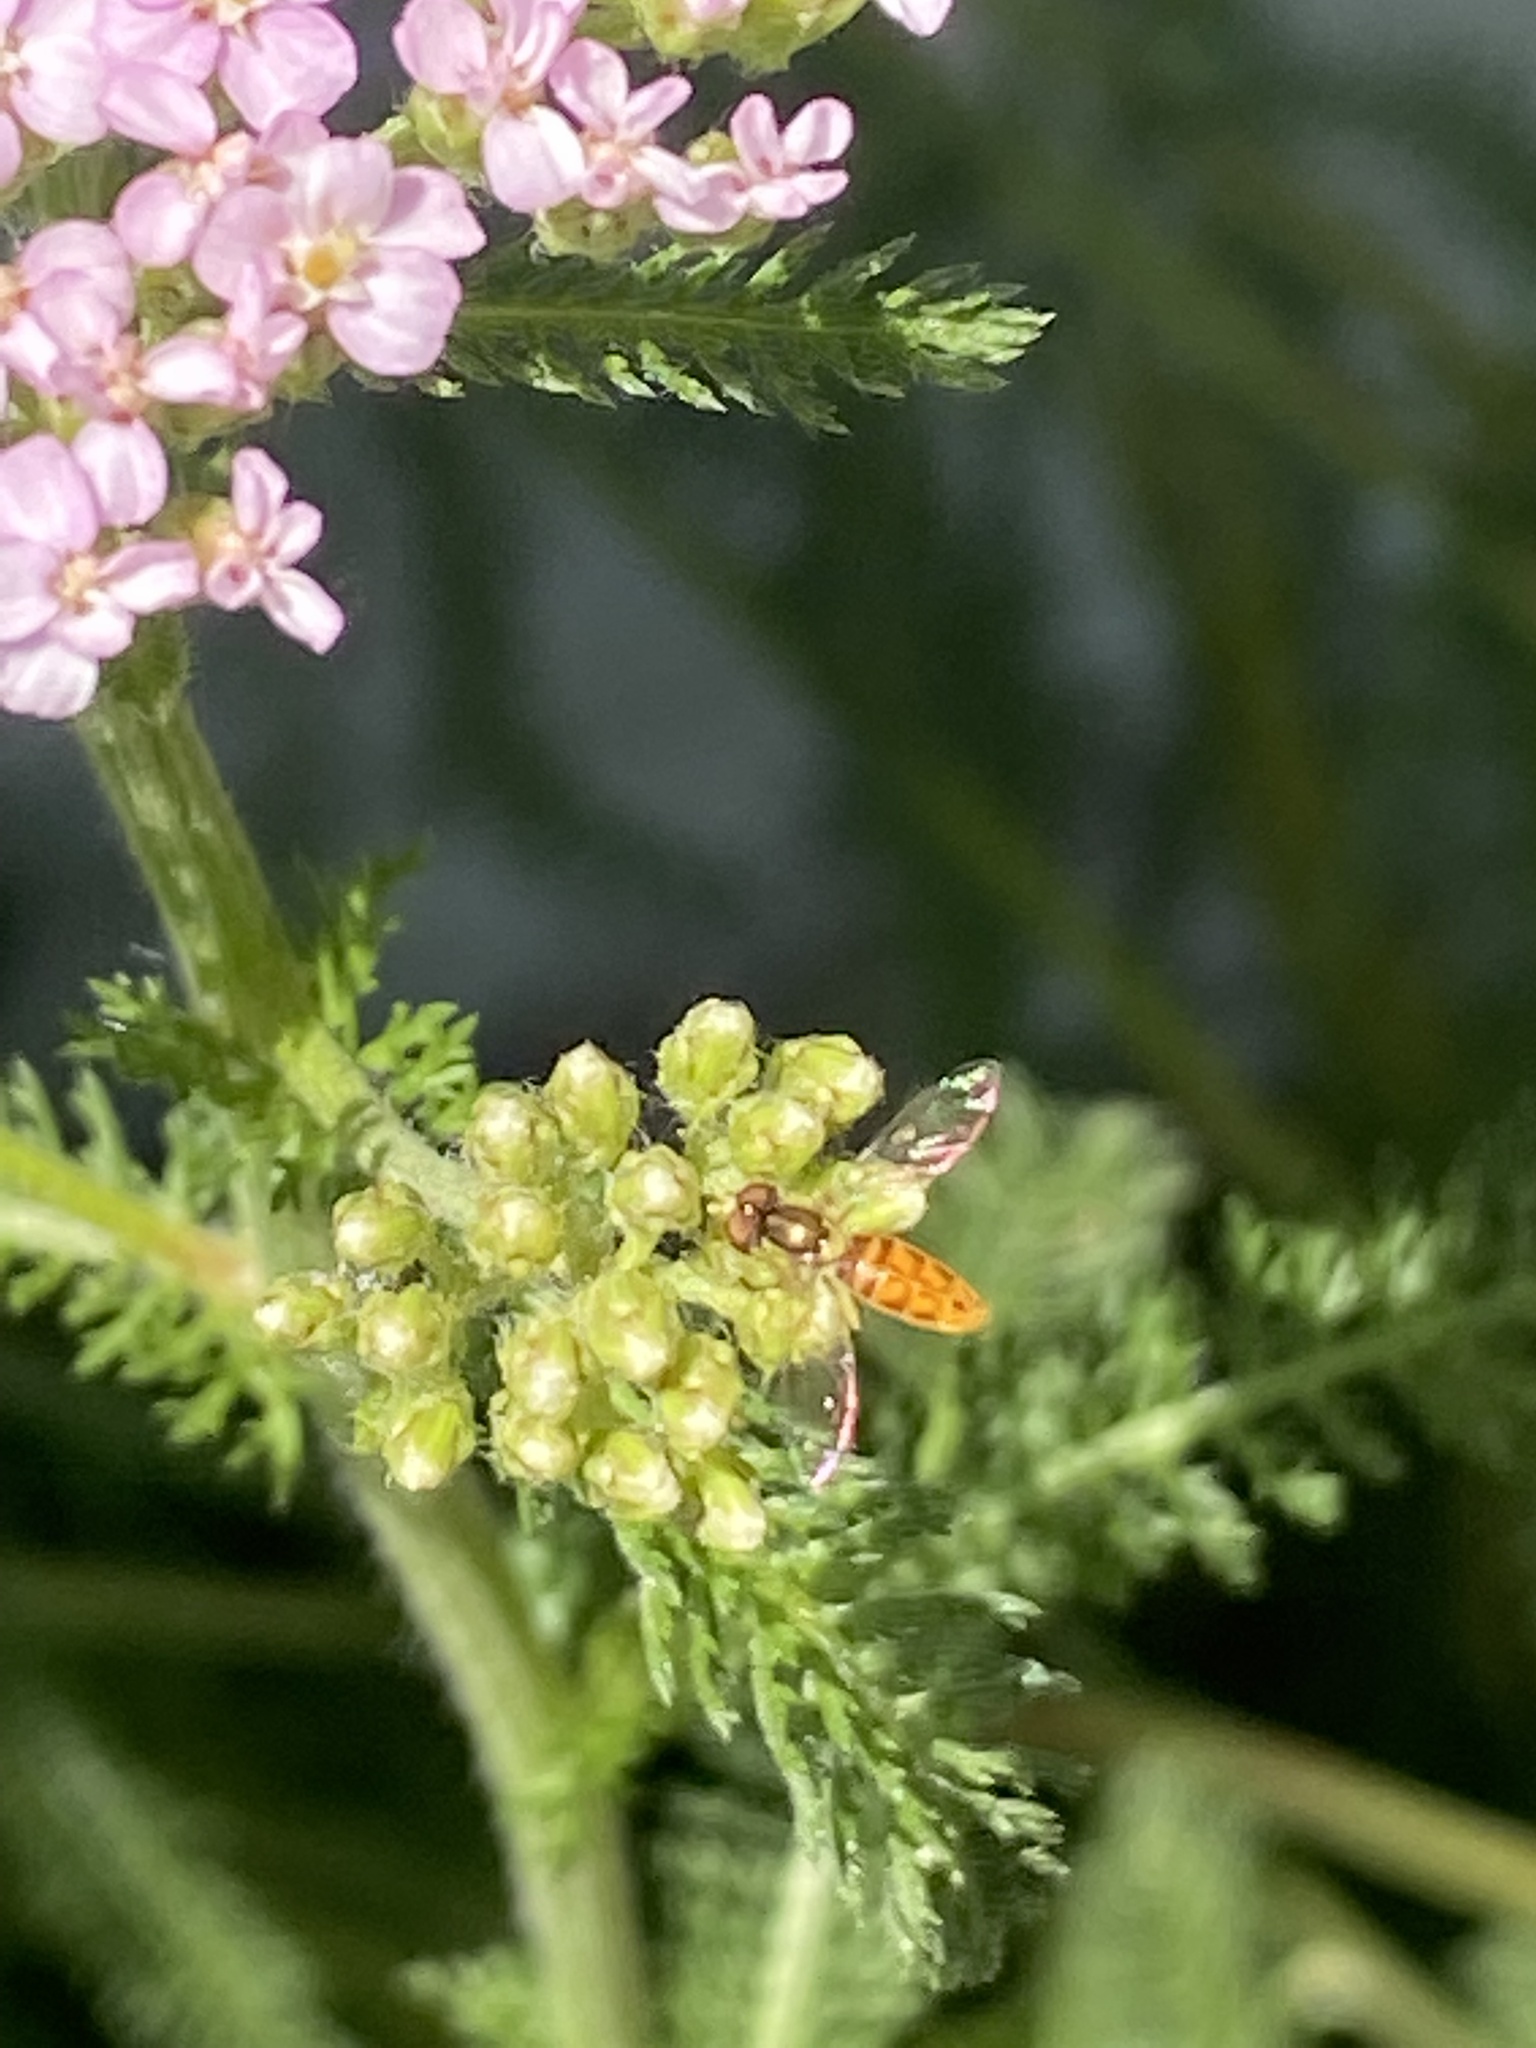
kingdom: Animalia
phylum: Arthropoda
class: Insecta
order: Diptera
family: Syrphidae
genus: Toxomerus
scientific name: Toxomerus marginatus
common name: Syrphid fly
